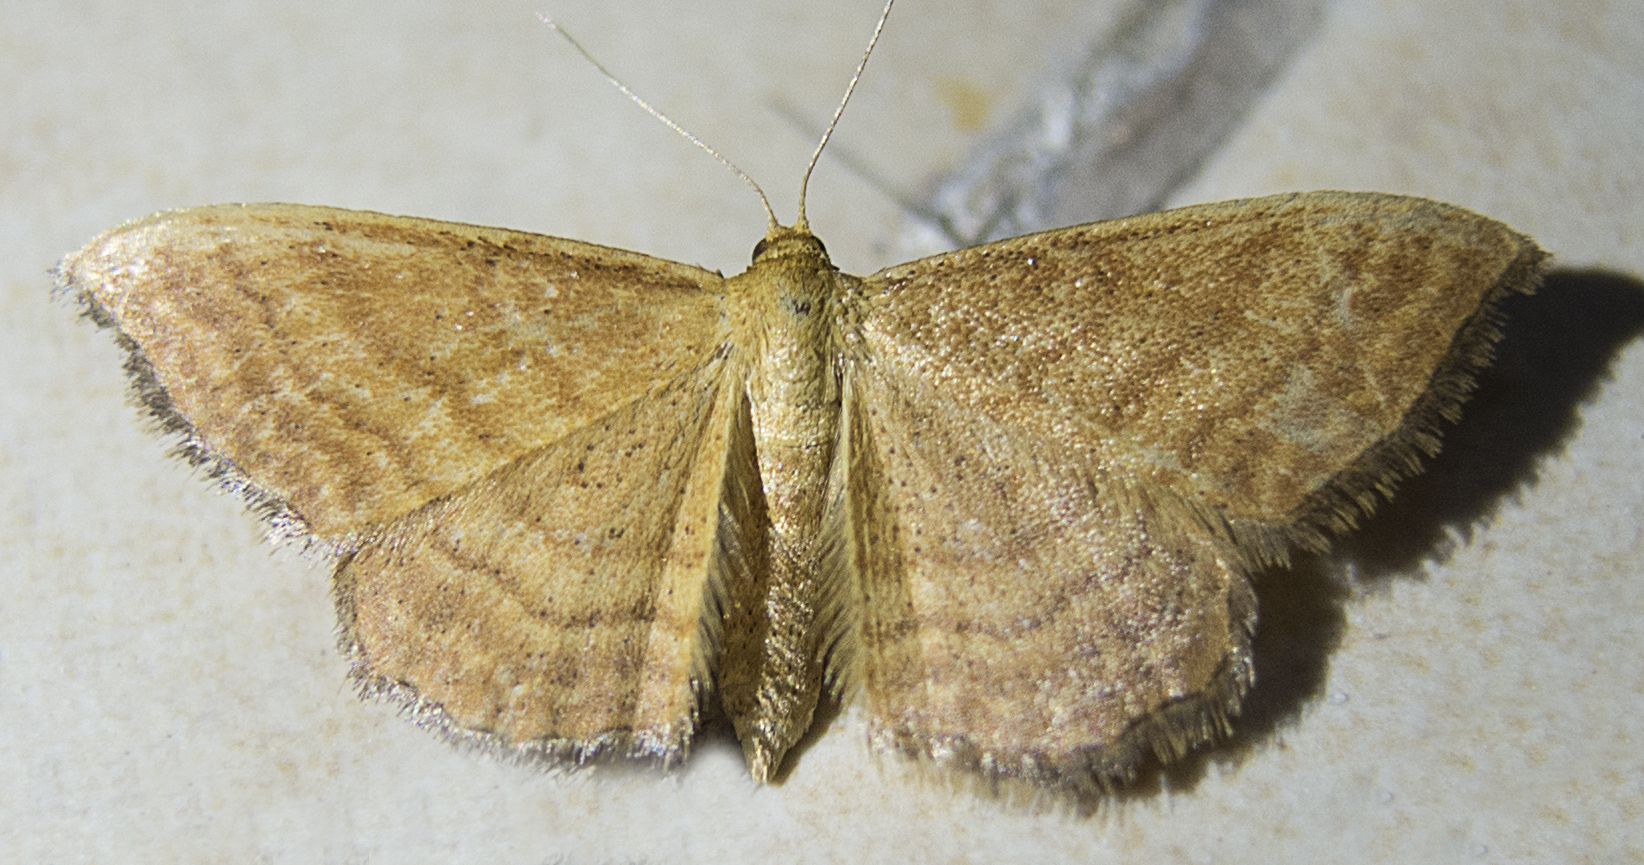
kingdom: Animalia
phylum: Arthropoda
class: Insecta
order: Lepidoptera
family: Geometridae
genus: Idaea
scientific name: Idaea ochrata
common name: Bright wave
